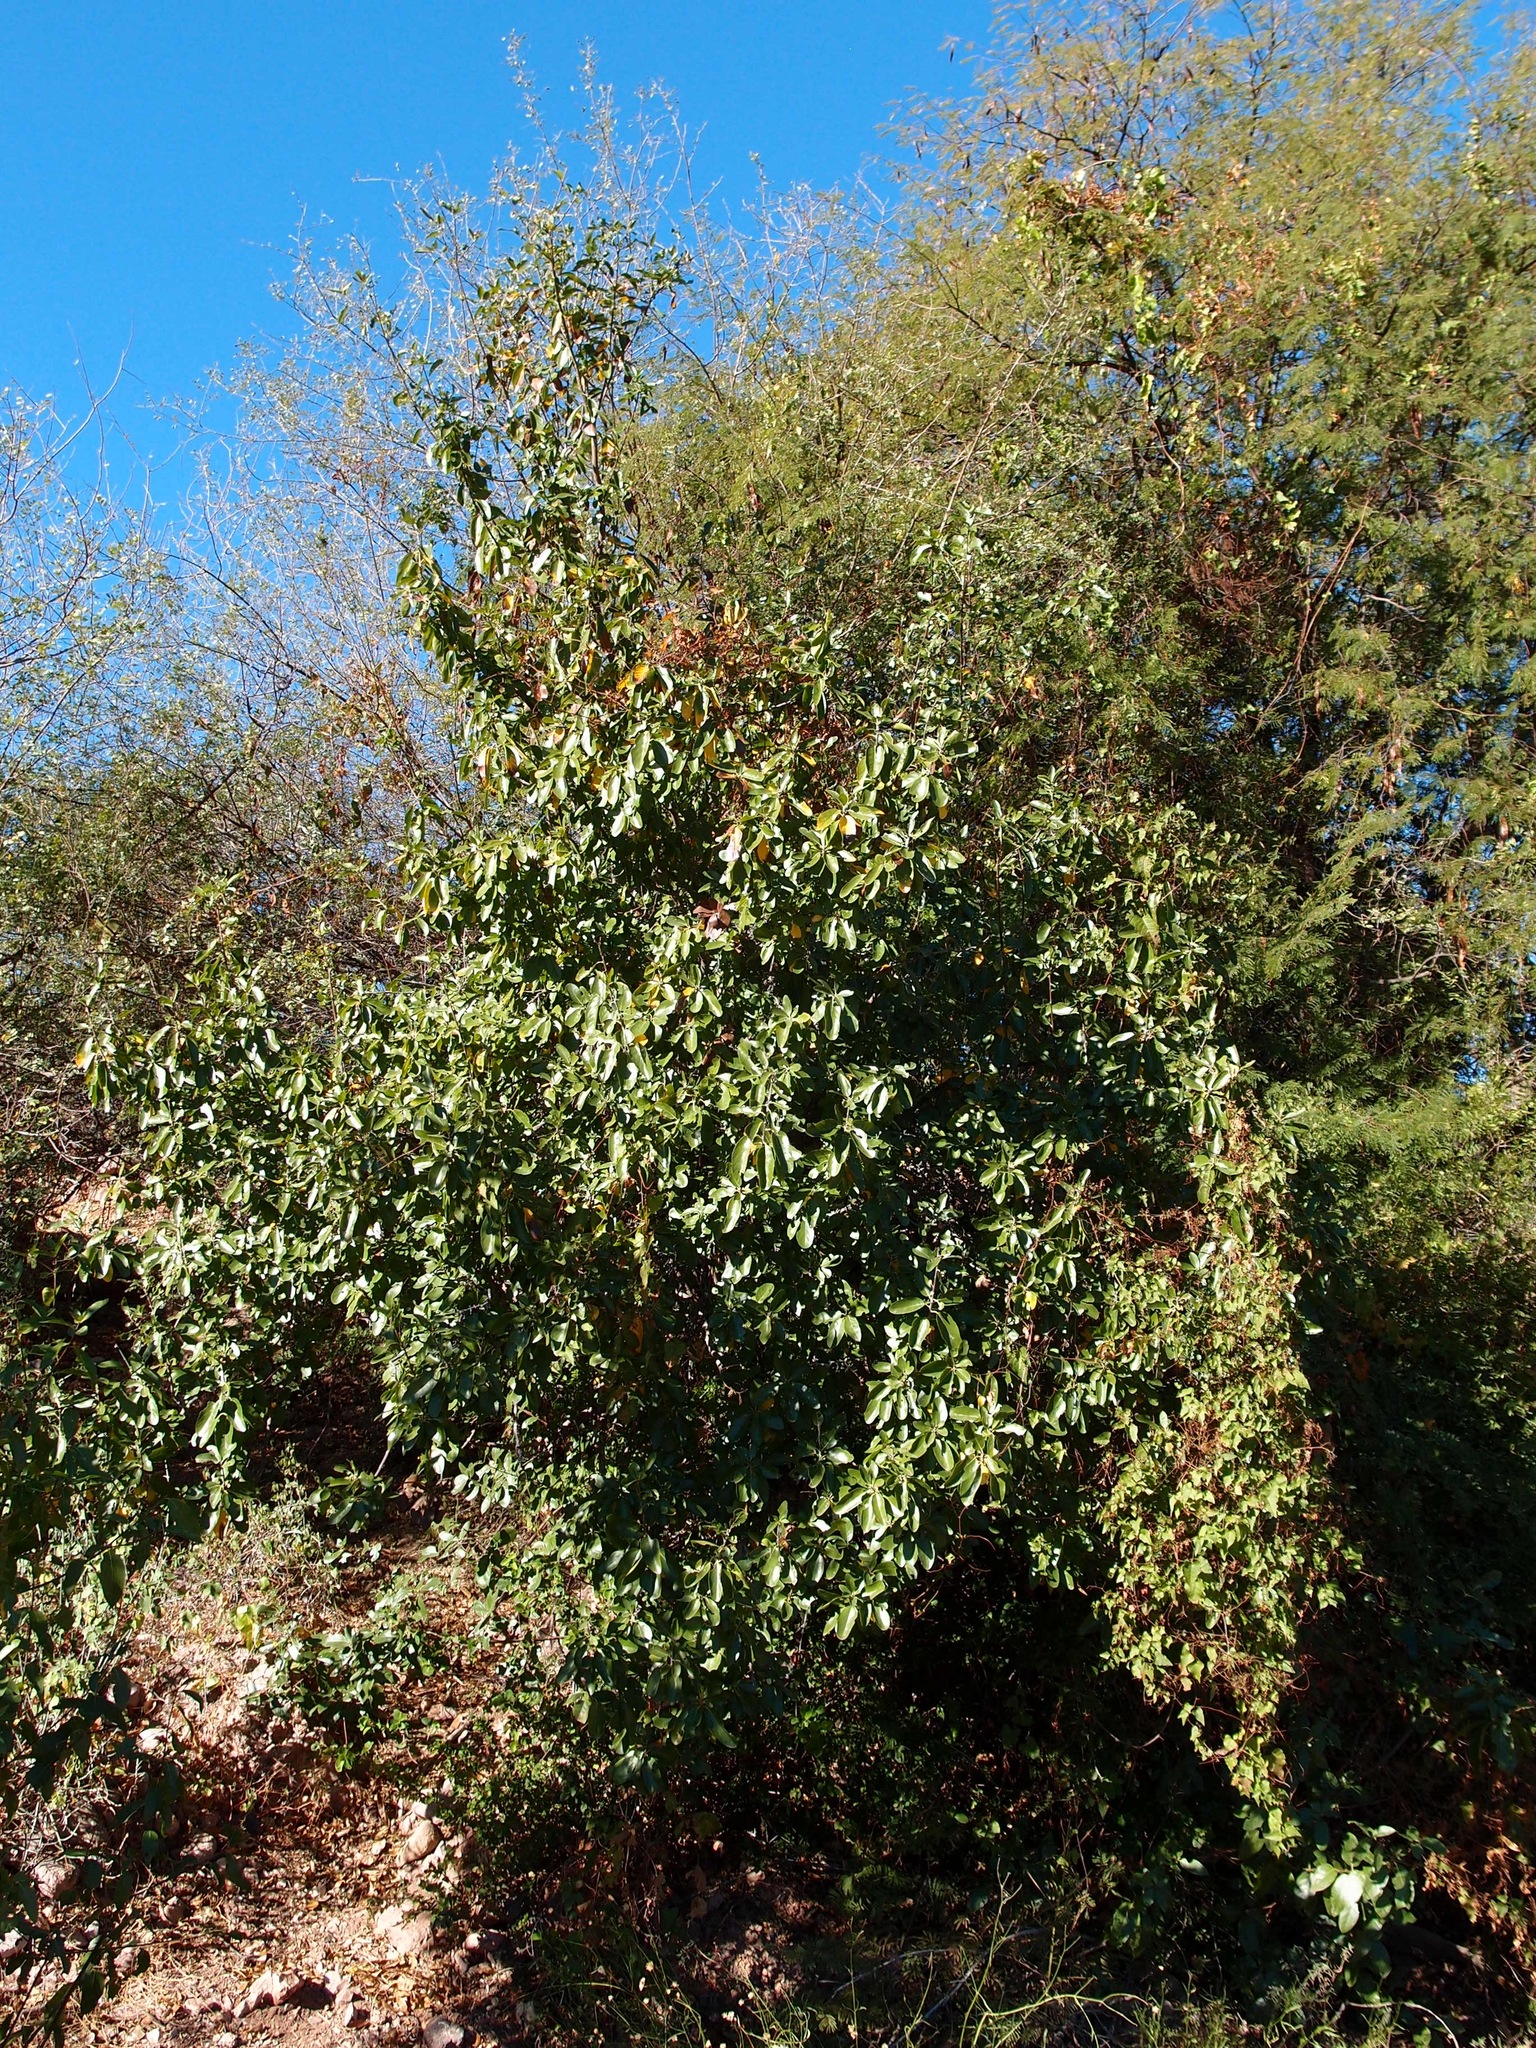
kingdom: Plantae
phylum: Tracheophyta
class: Magnoliopsida
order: Boraginales
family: Cordiaceae
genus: Cordia
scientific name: Cordia sonorae
